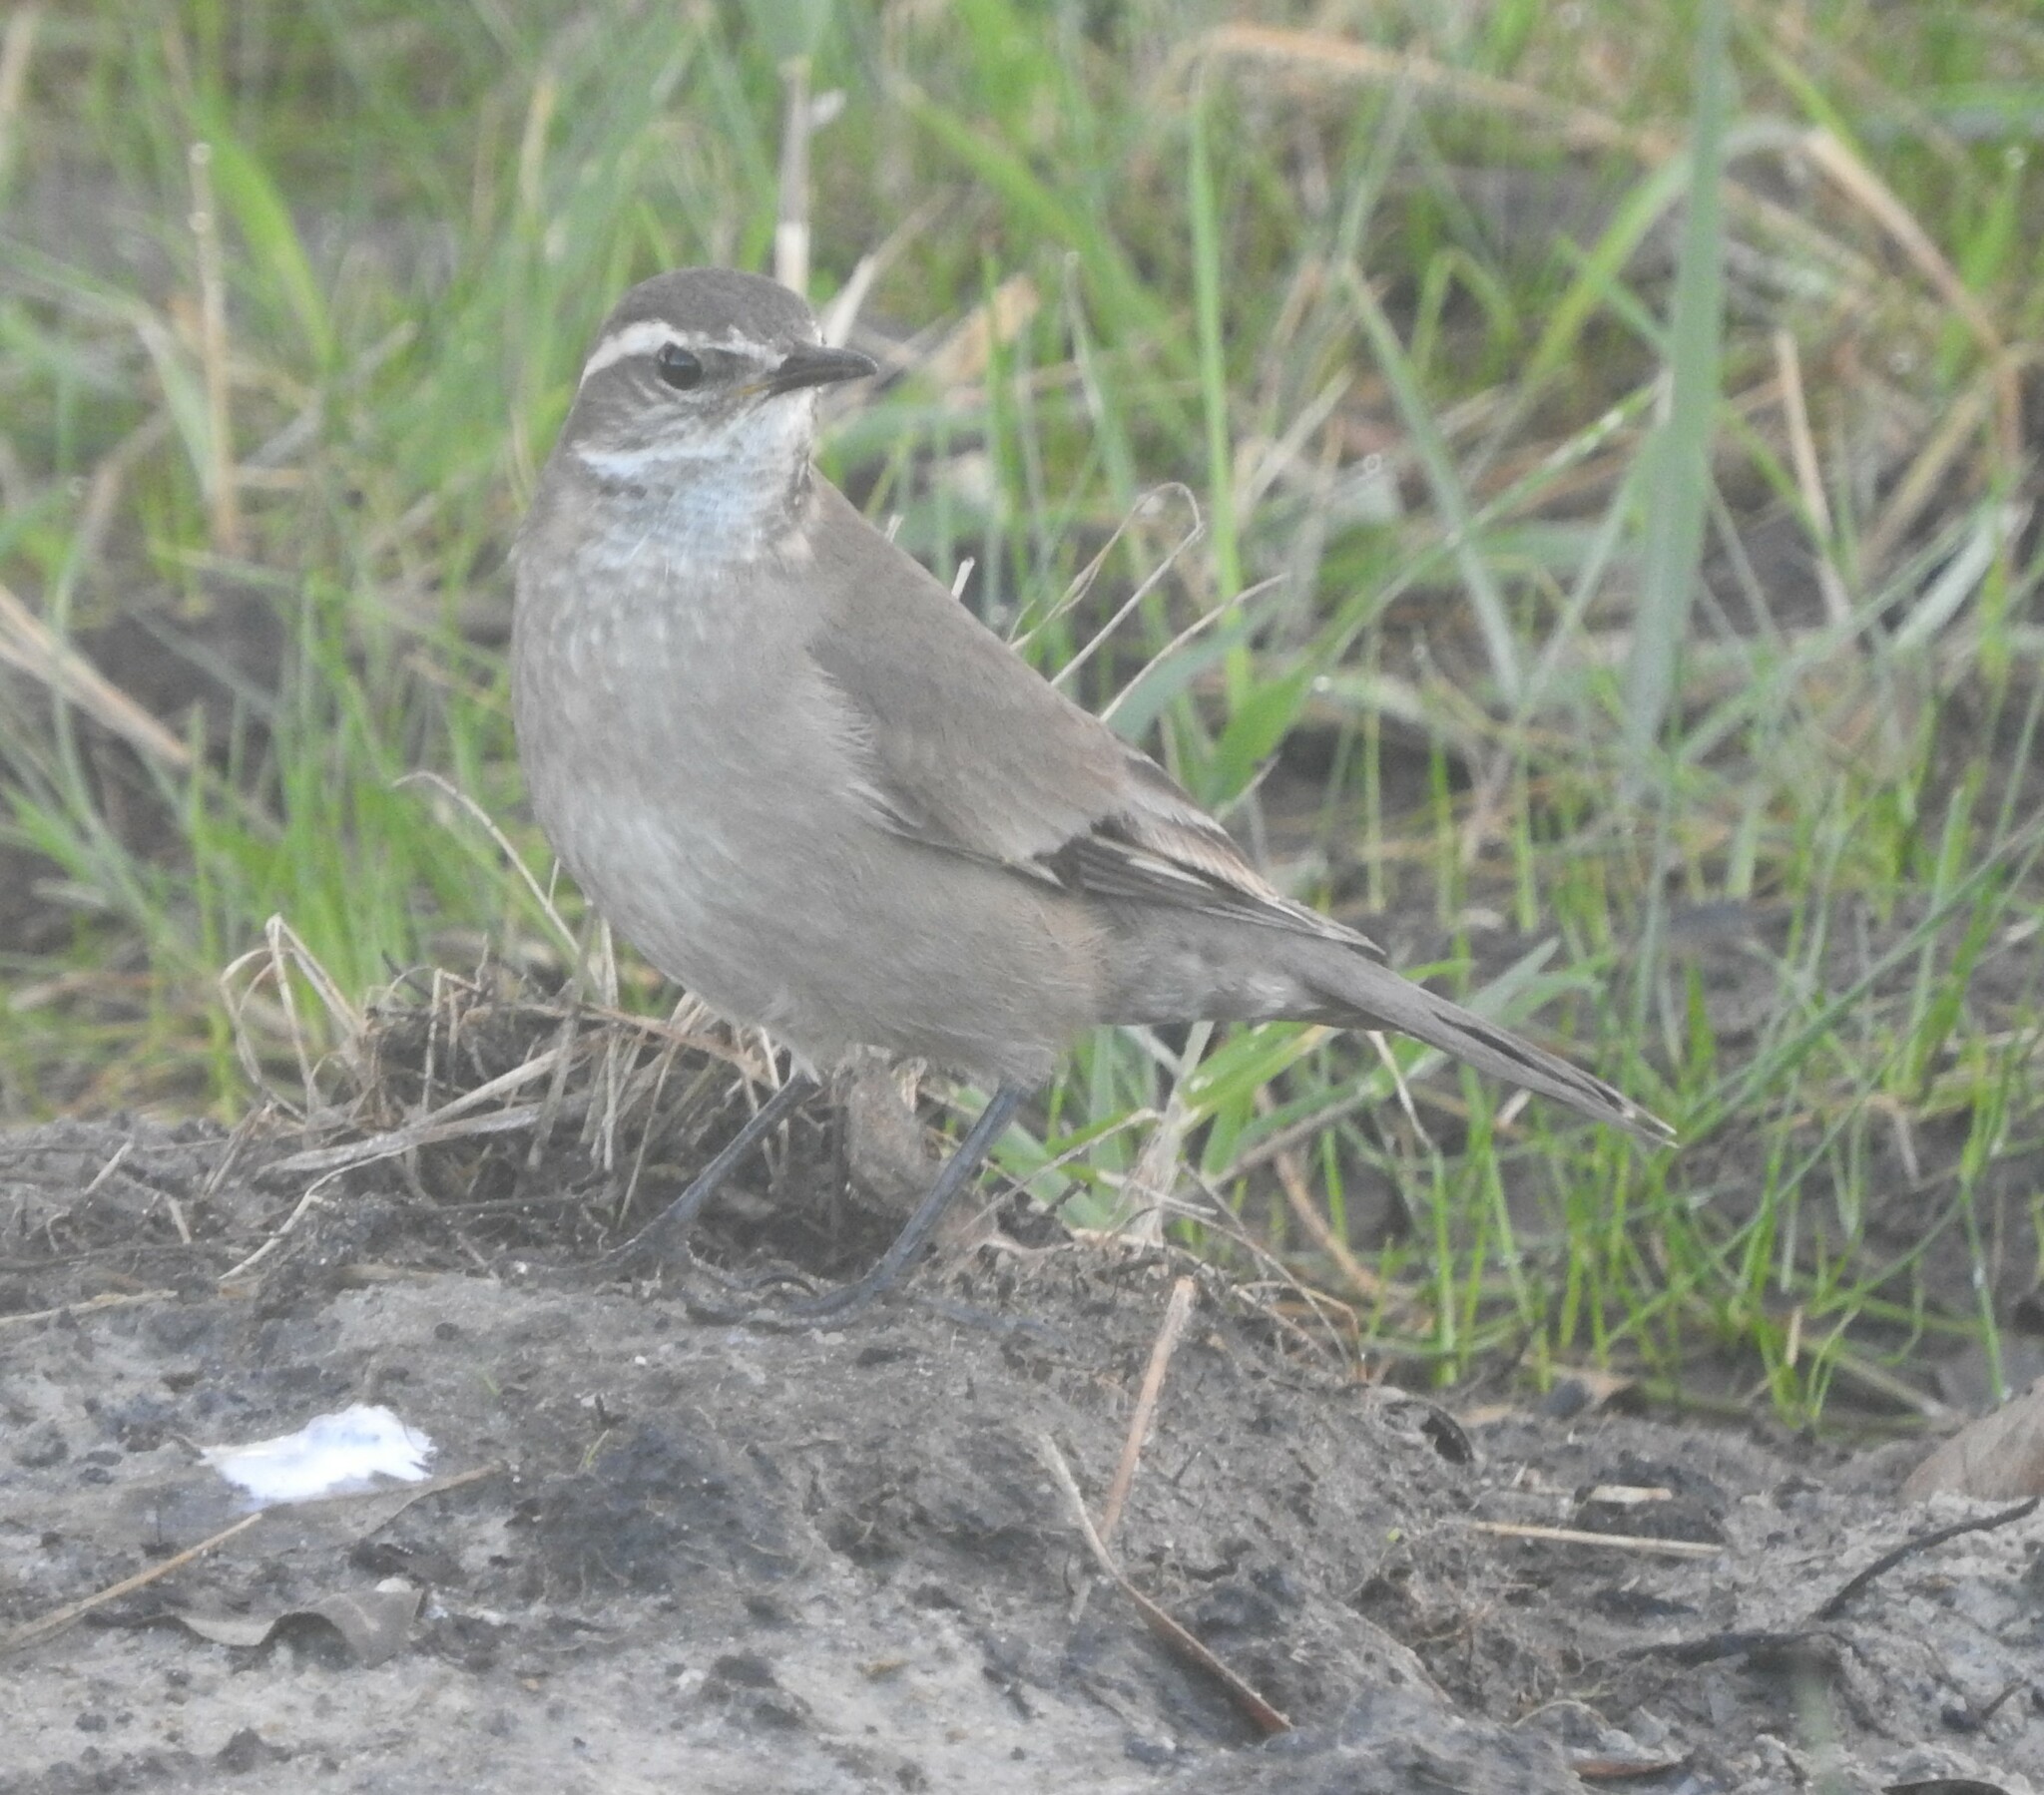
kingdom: Animalia
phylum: Chordata
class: Aves
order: Passeriformes
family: Furnariidae
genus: Cinclodes
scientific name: Cinclodes fuscus
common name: Buff-winged cinclodes
